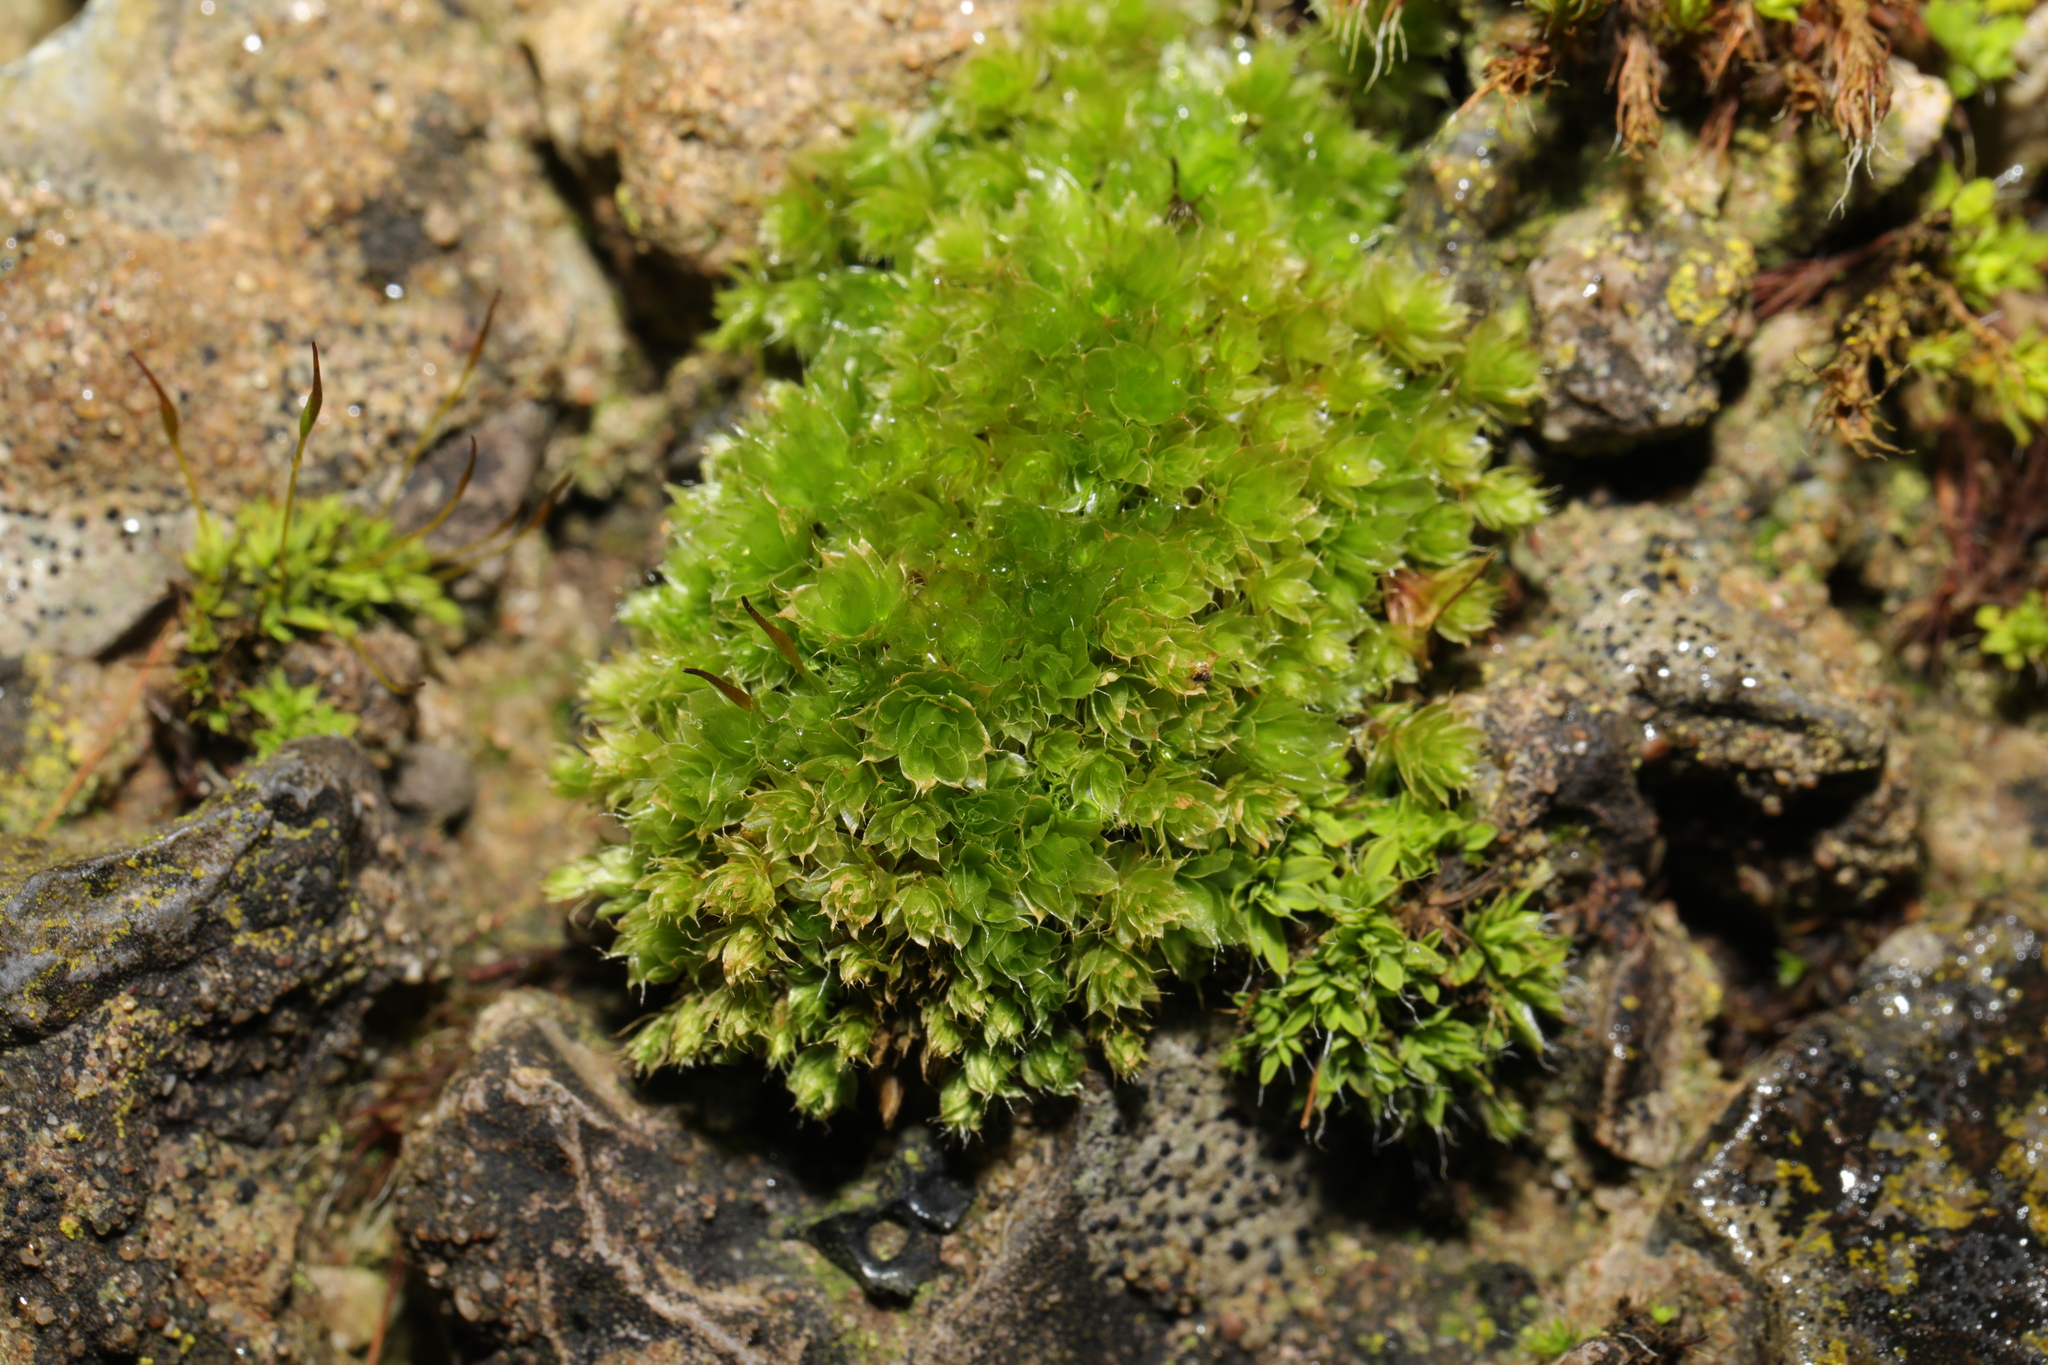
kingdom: Plantae
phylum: Bryophyta
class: Bryopsida
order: Bryales
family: Bryaceae
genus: Rosulabryum
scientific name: Rosulabryum capillare
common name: Capillary thread-moss
